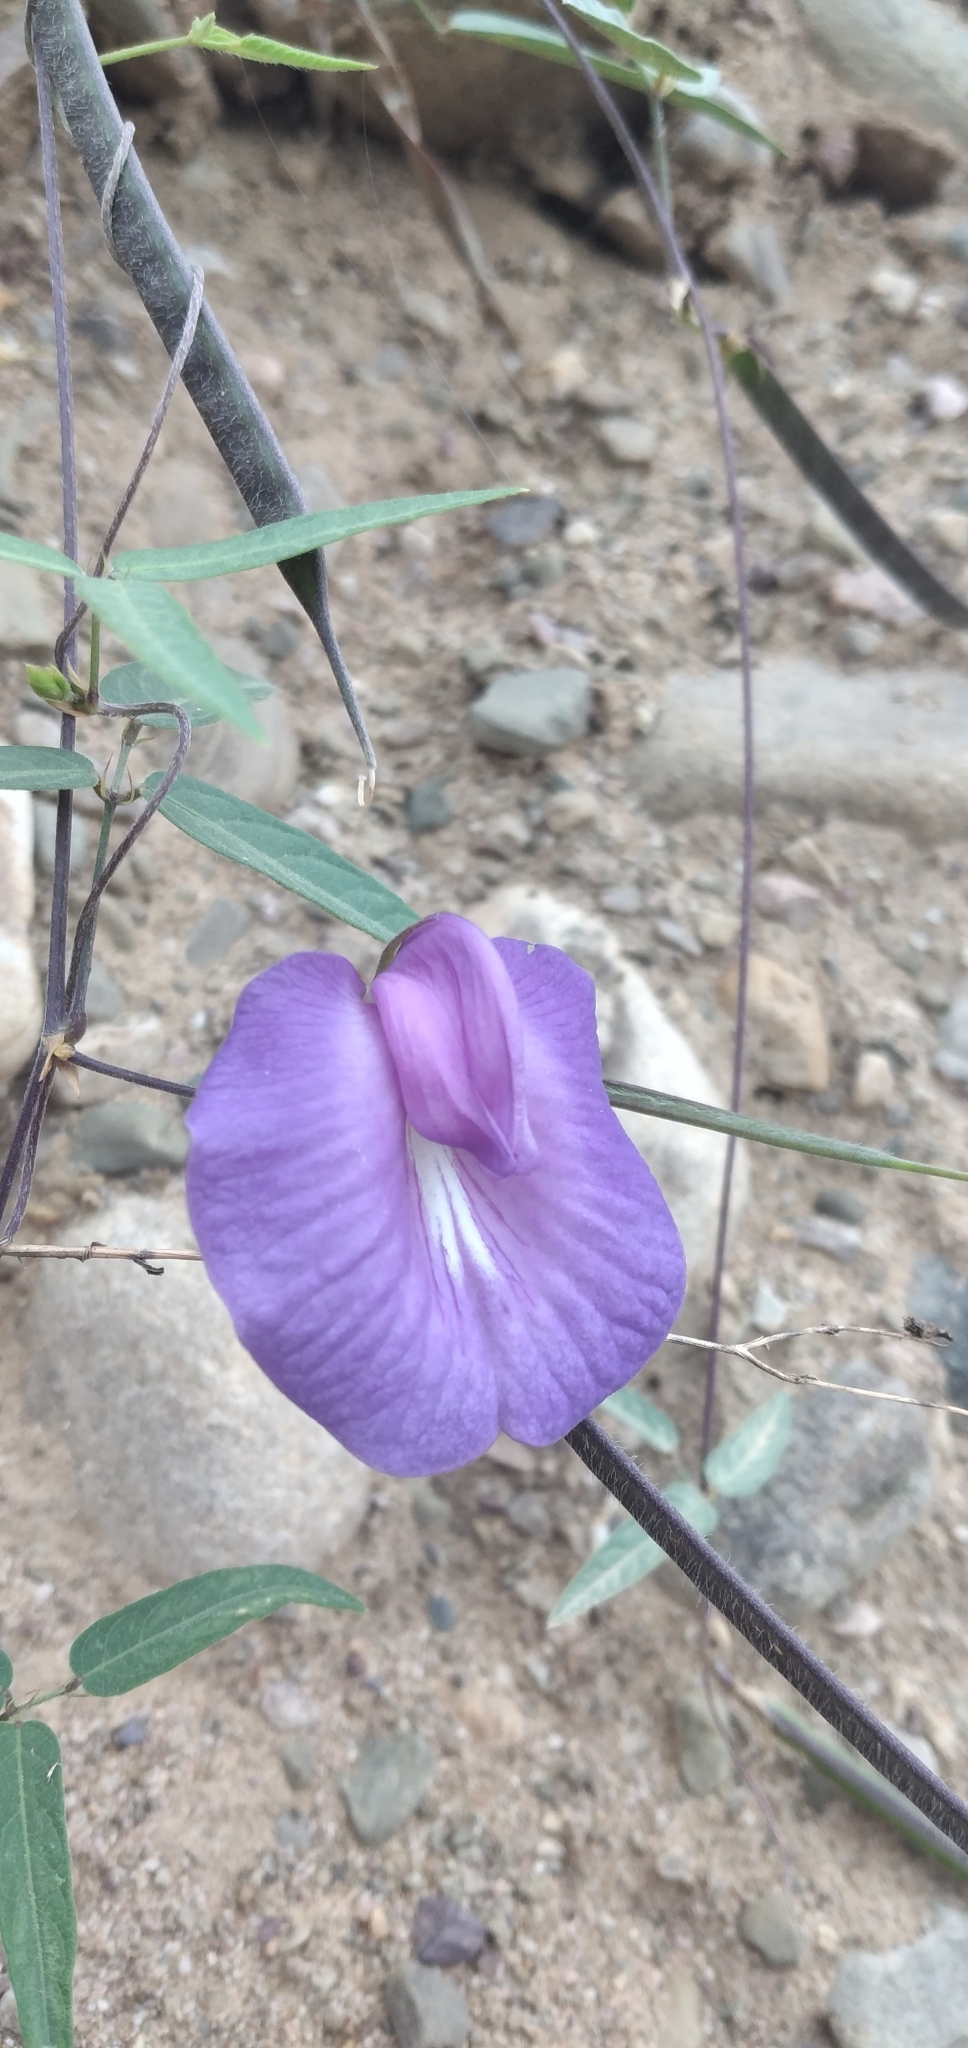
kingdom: Plantae
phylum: Tracheophyta
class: Magnoliopsida
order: Fabales
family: Fabaceae
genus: Centrosema
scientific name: Centrosema virginianum
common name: Butterfly-pea
